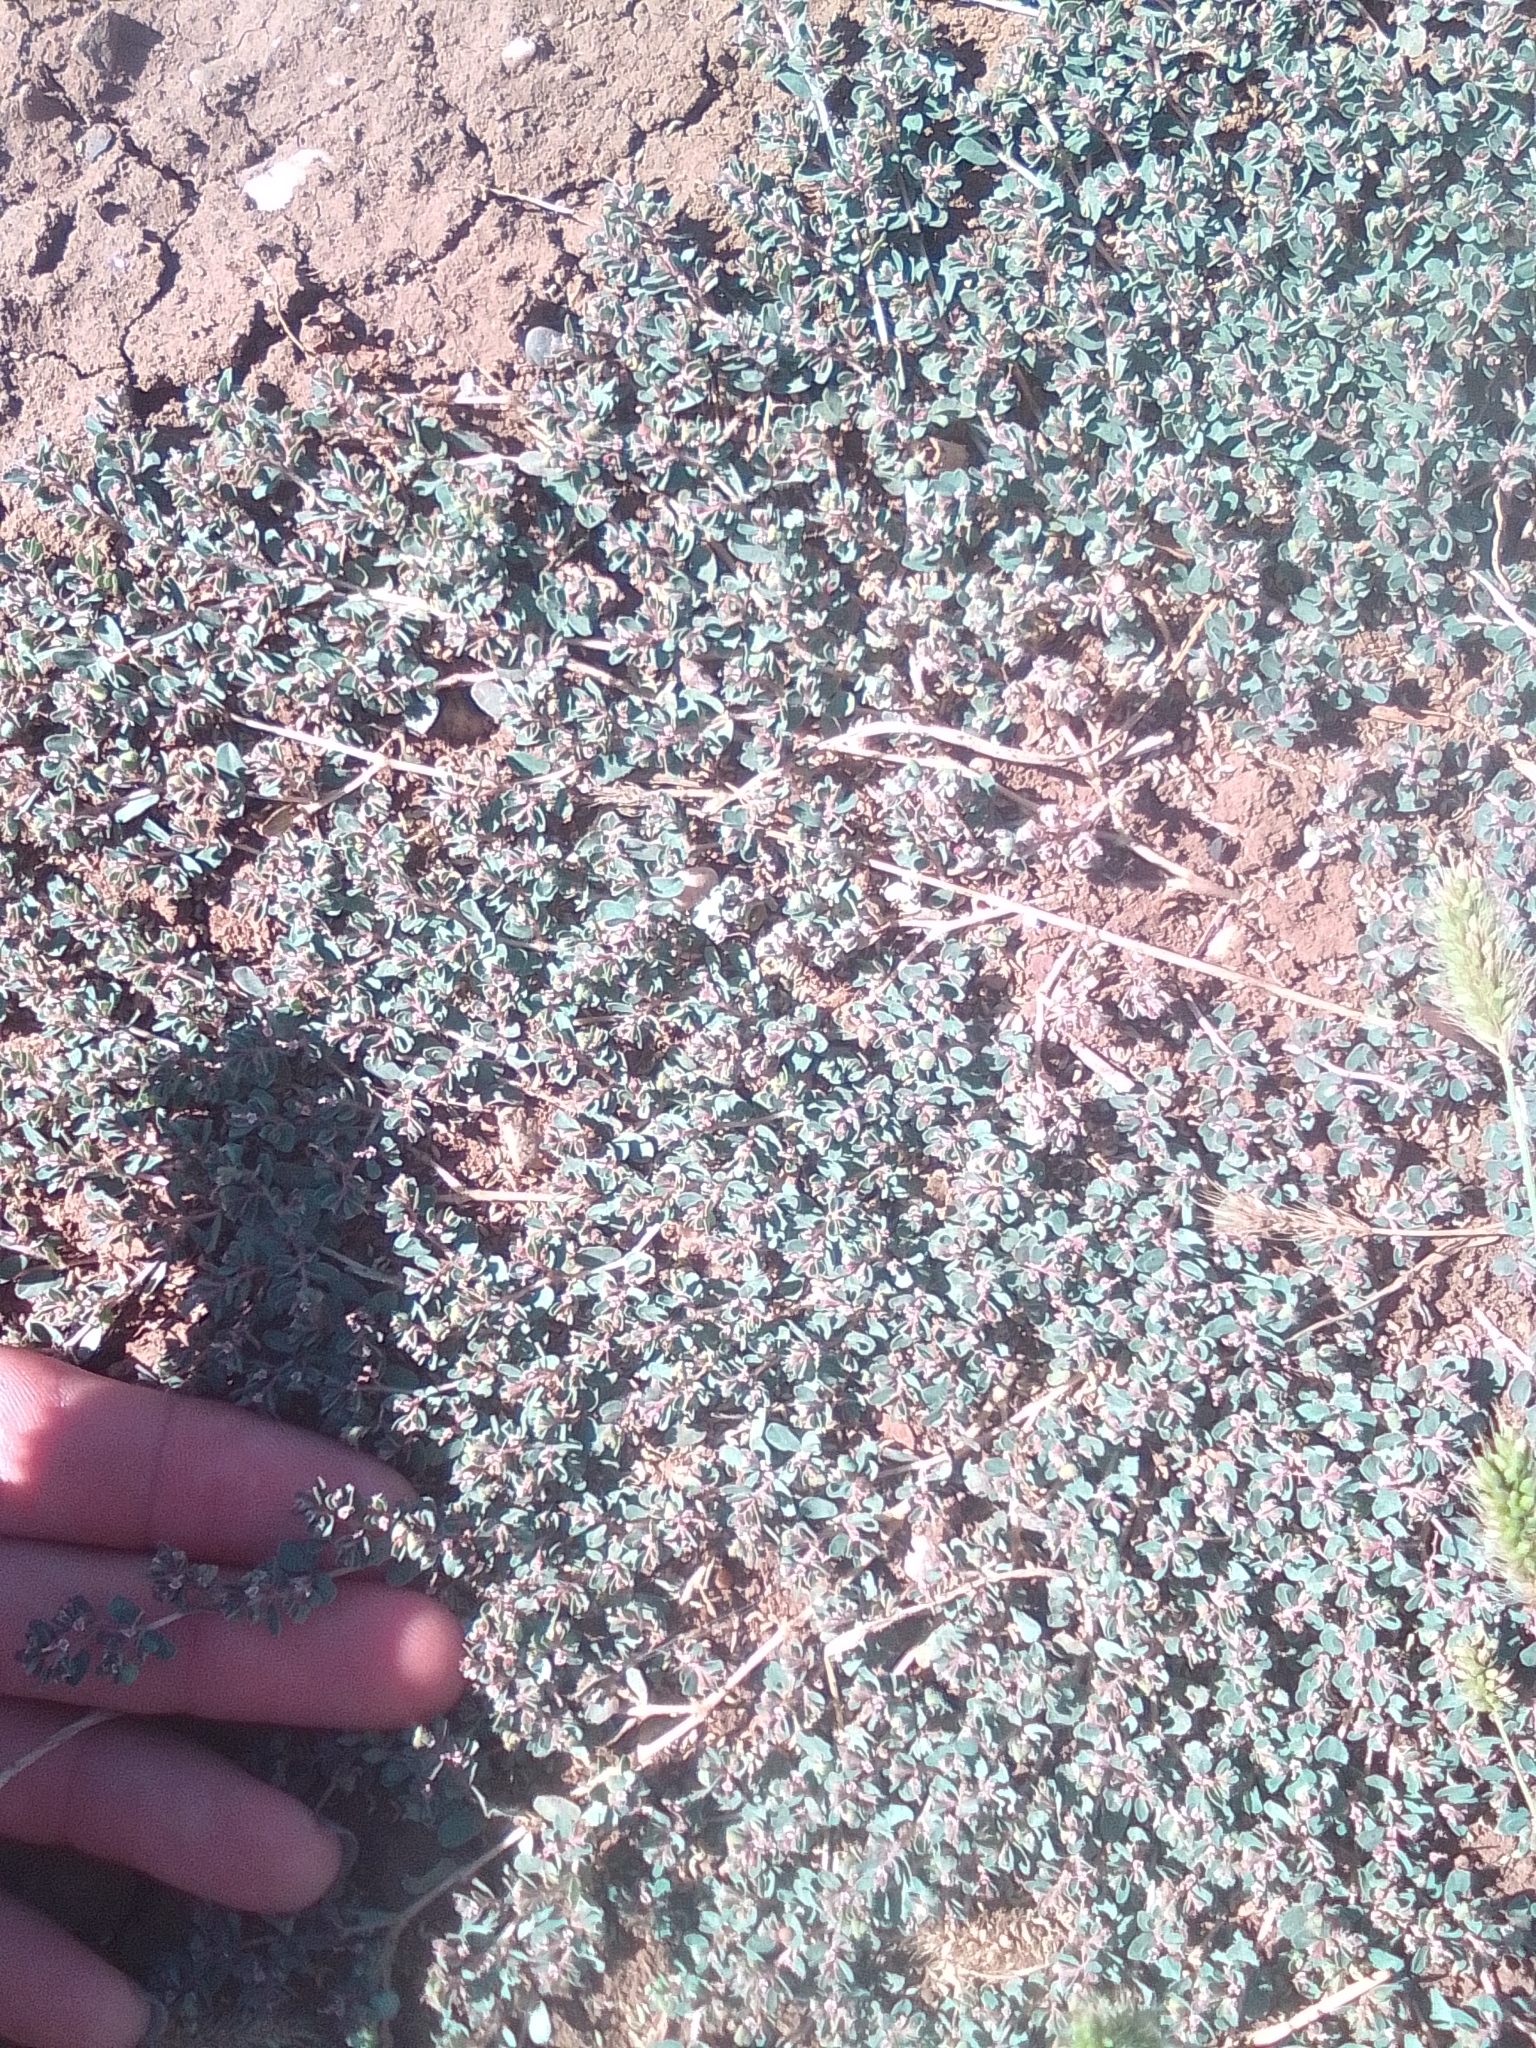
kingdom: Plantae
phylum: Tracheophyta
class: Magnoliopsida
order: Malpighiales
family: Euphorbiaceae
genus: Euphorbia
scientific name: Euphorbia chamaesyce
